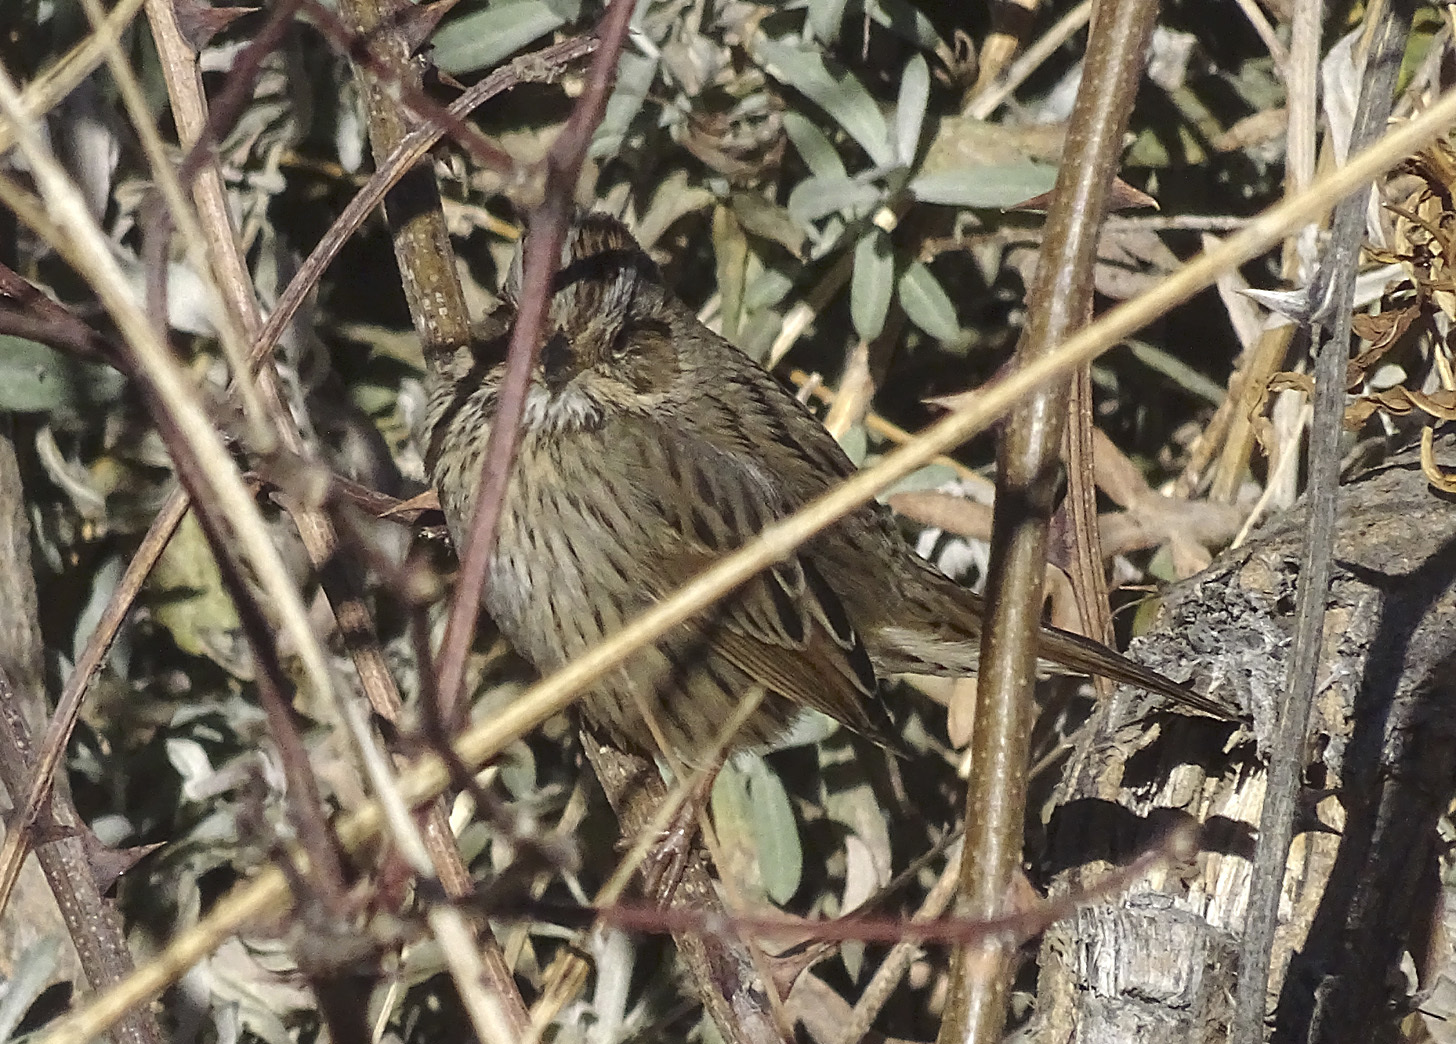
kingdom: Animalia
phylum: Chordata
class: Aves
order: Passeriformes
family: Passerellidae
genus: Melospiza
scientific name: Melospiza lincolnii
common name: Lincoln's sparrow
